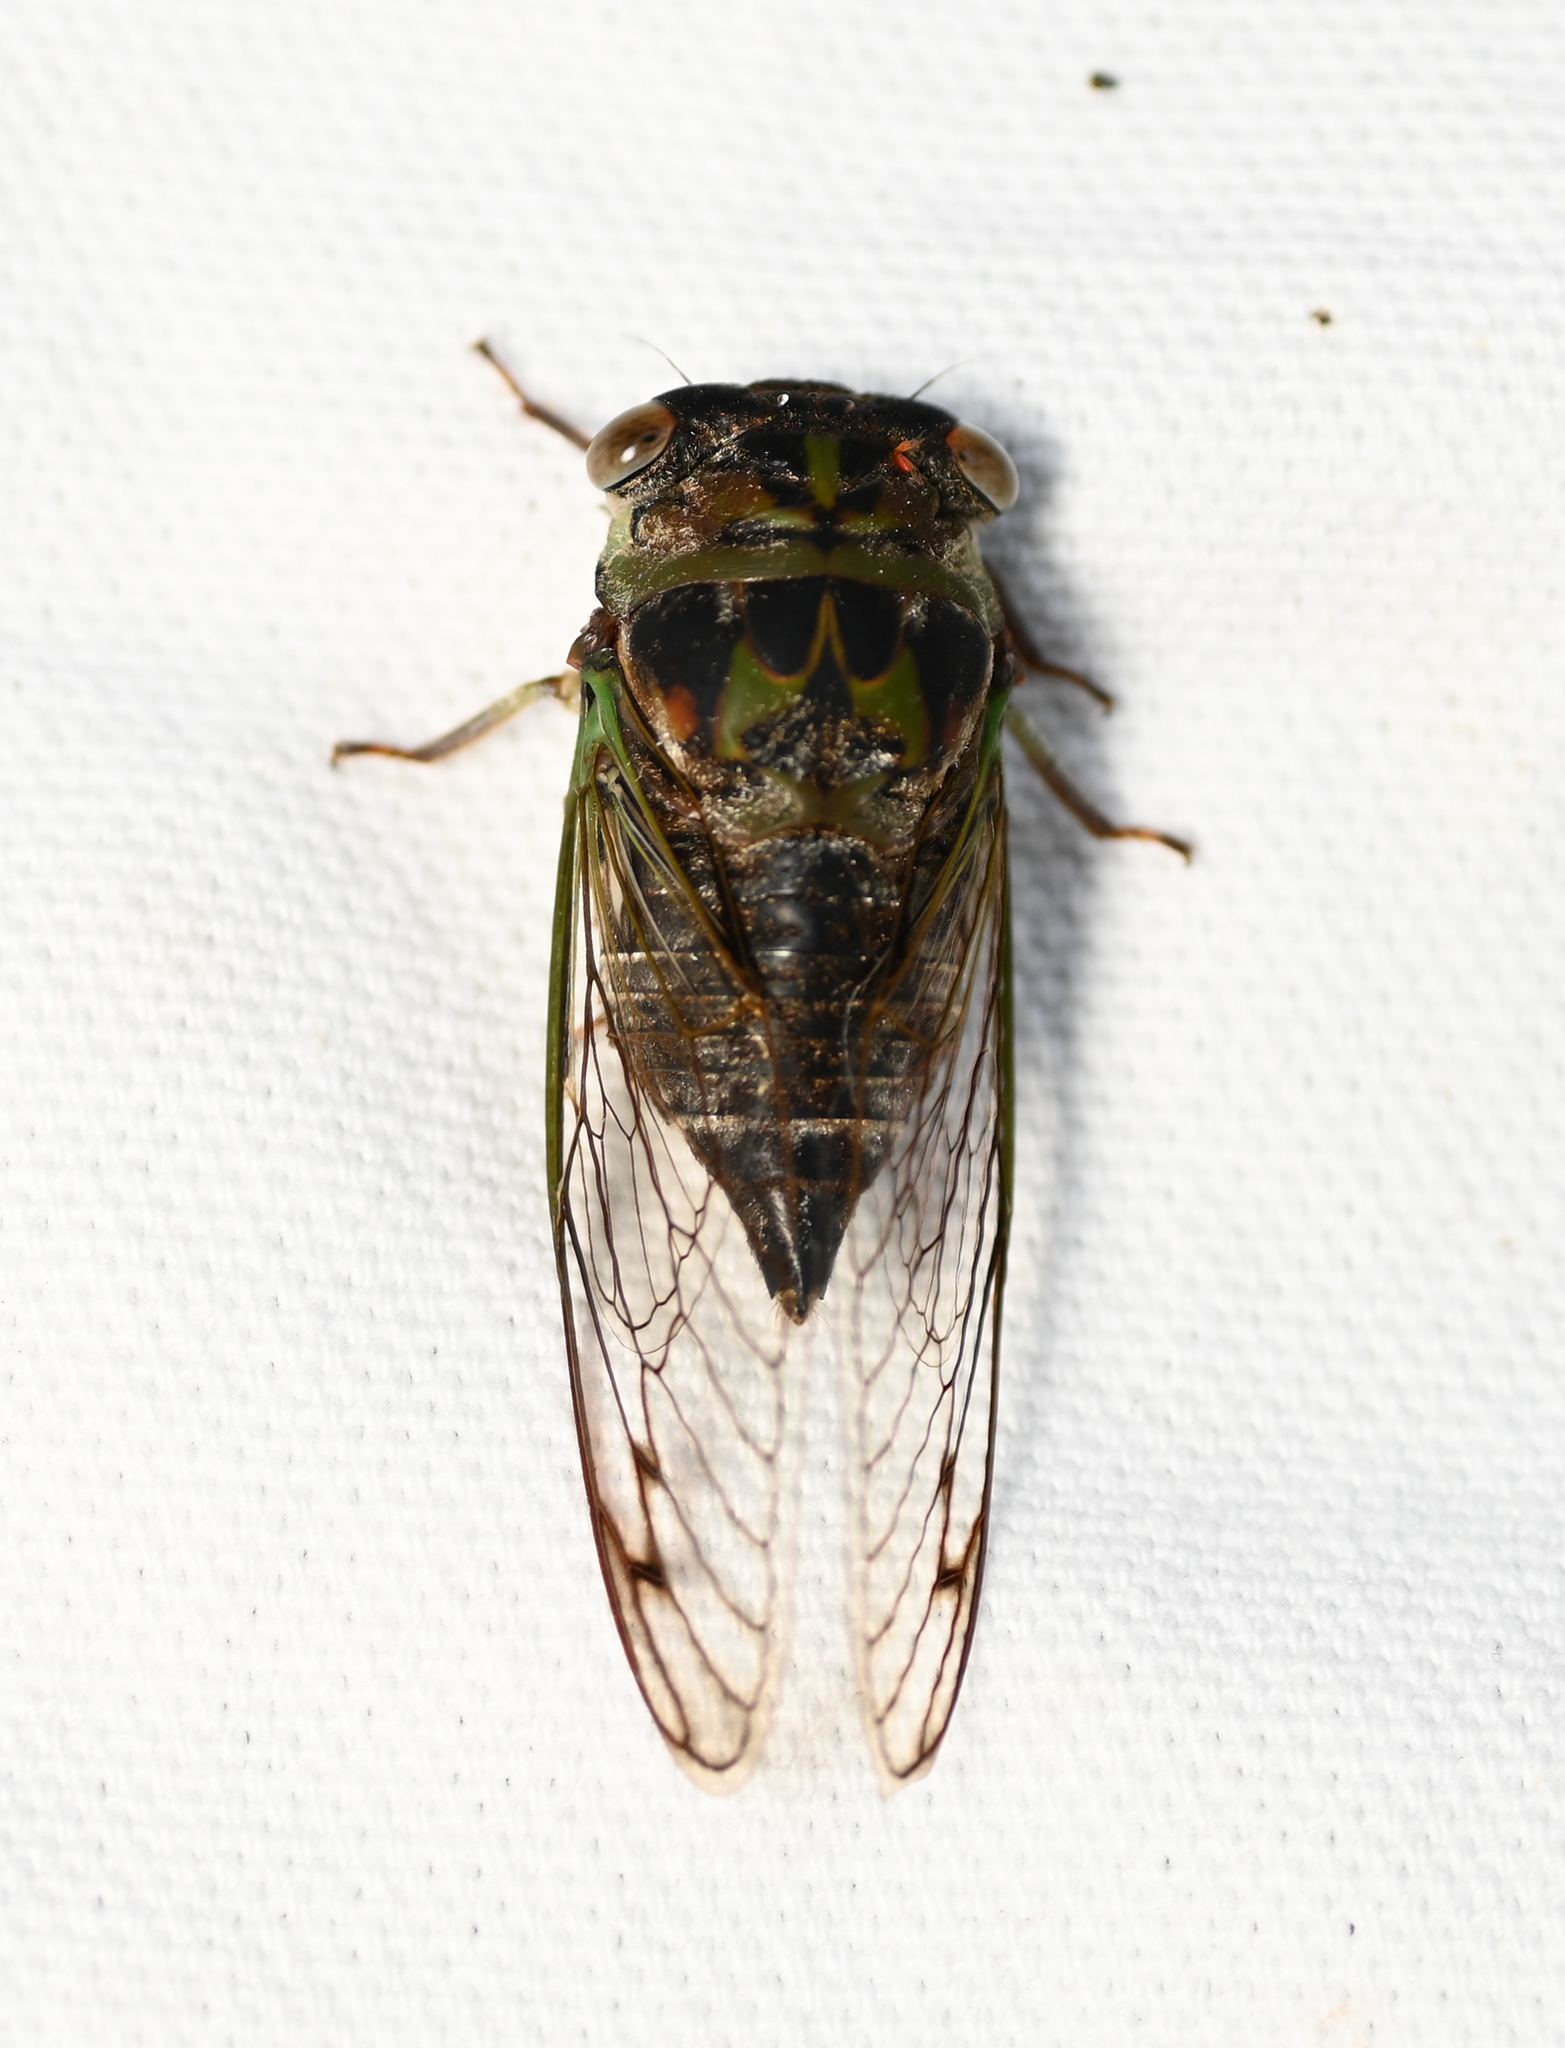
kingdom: Animalia
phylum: Arthropoda
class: Insecta
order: Hemiptera
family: Cicadidae
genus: Neotibicen
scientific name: Neotibicen davisi
